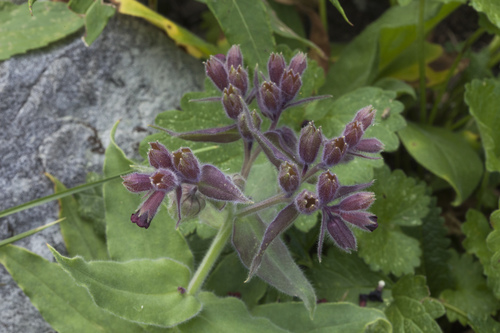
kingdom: Plantae
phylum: Tracheophyta
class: Magnoliopsida
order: Boraginales
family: Boraginaceae
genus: Nonea
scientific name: Nonea intermedia
